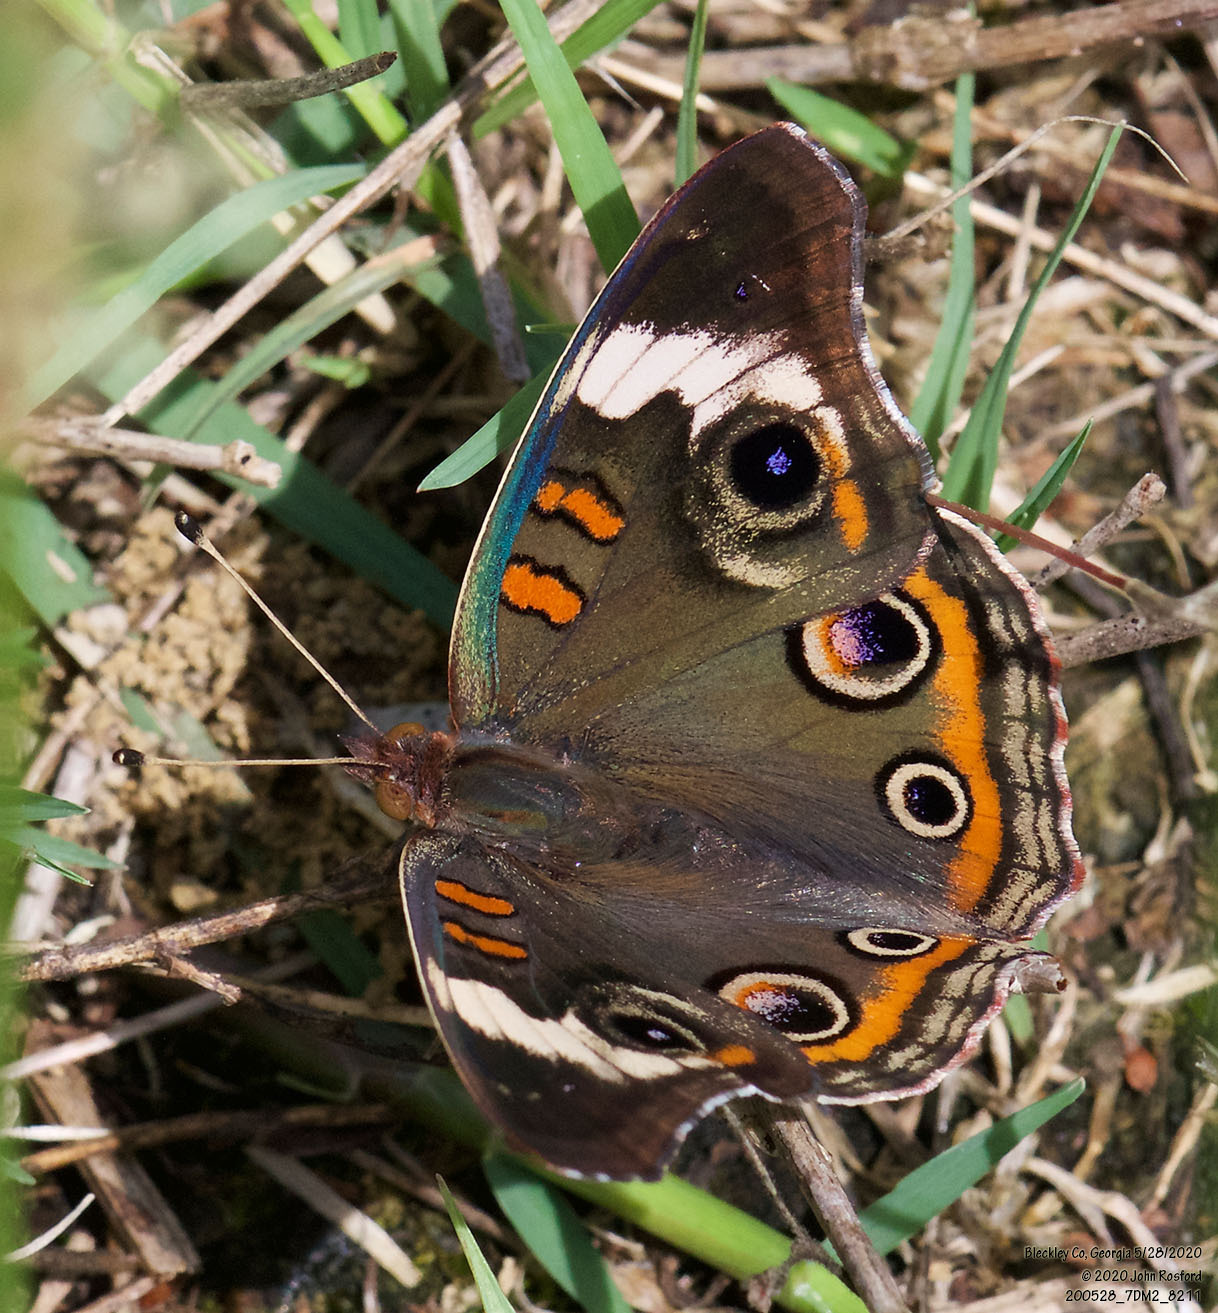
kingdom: Animalia
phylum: Arthropoda
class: Insecta
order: Lepidoptera
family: Nymphalidae
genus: Junonia
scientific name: Junonia coenia
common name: Common buckeye
